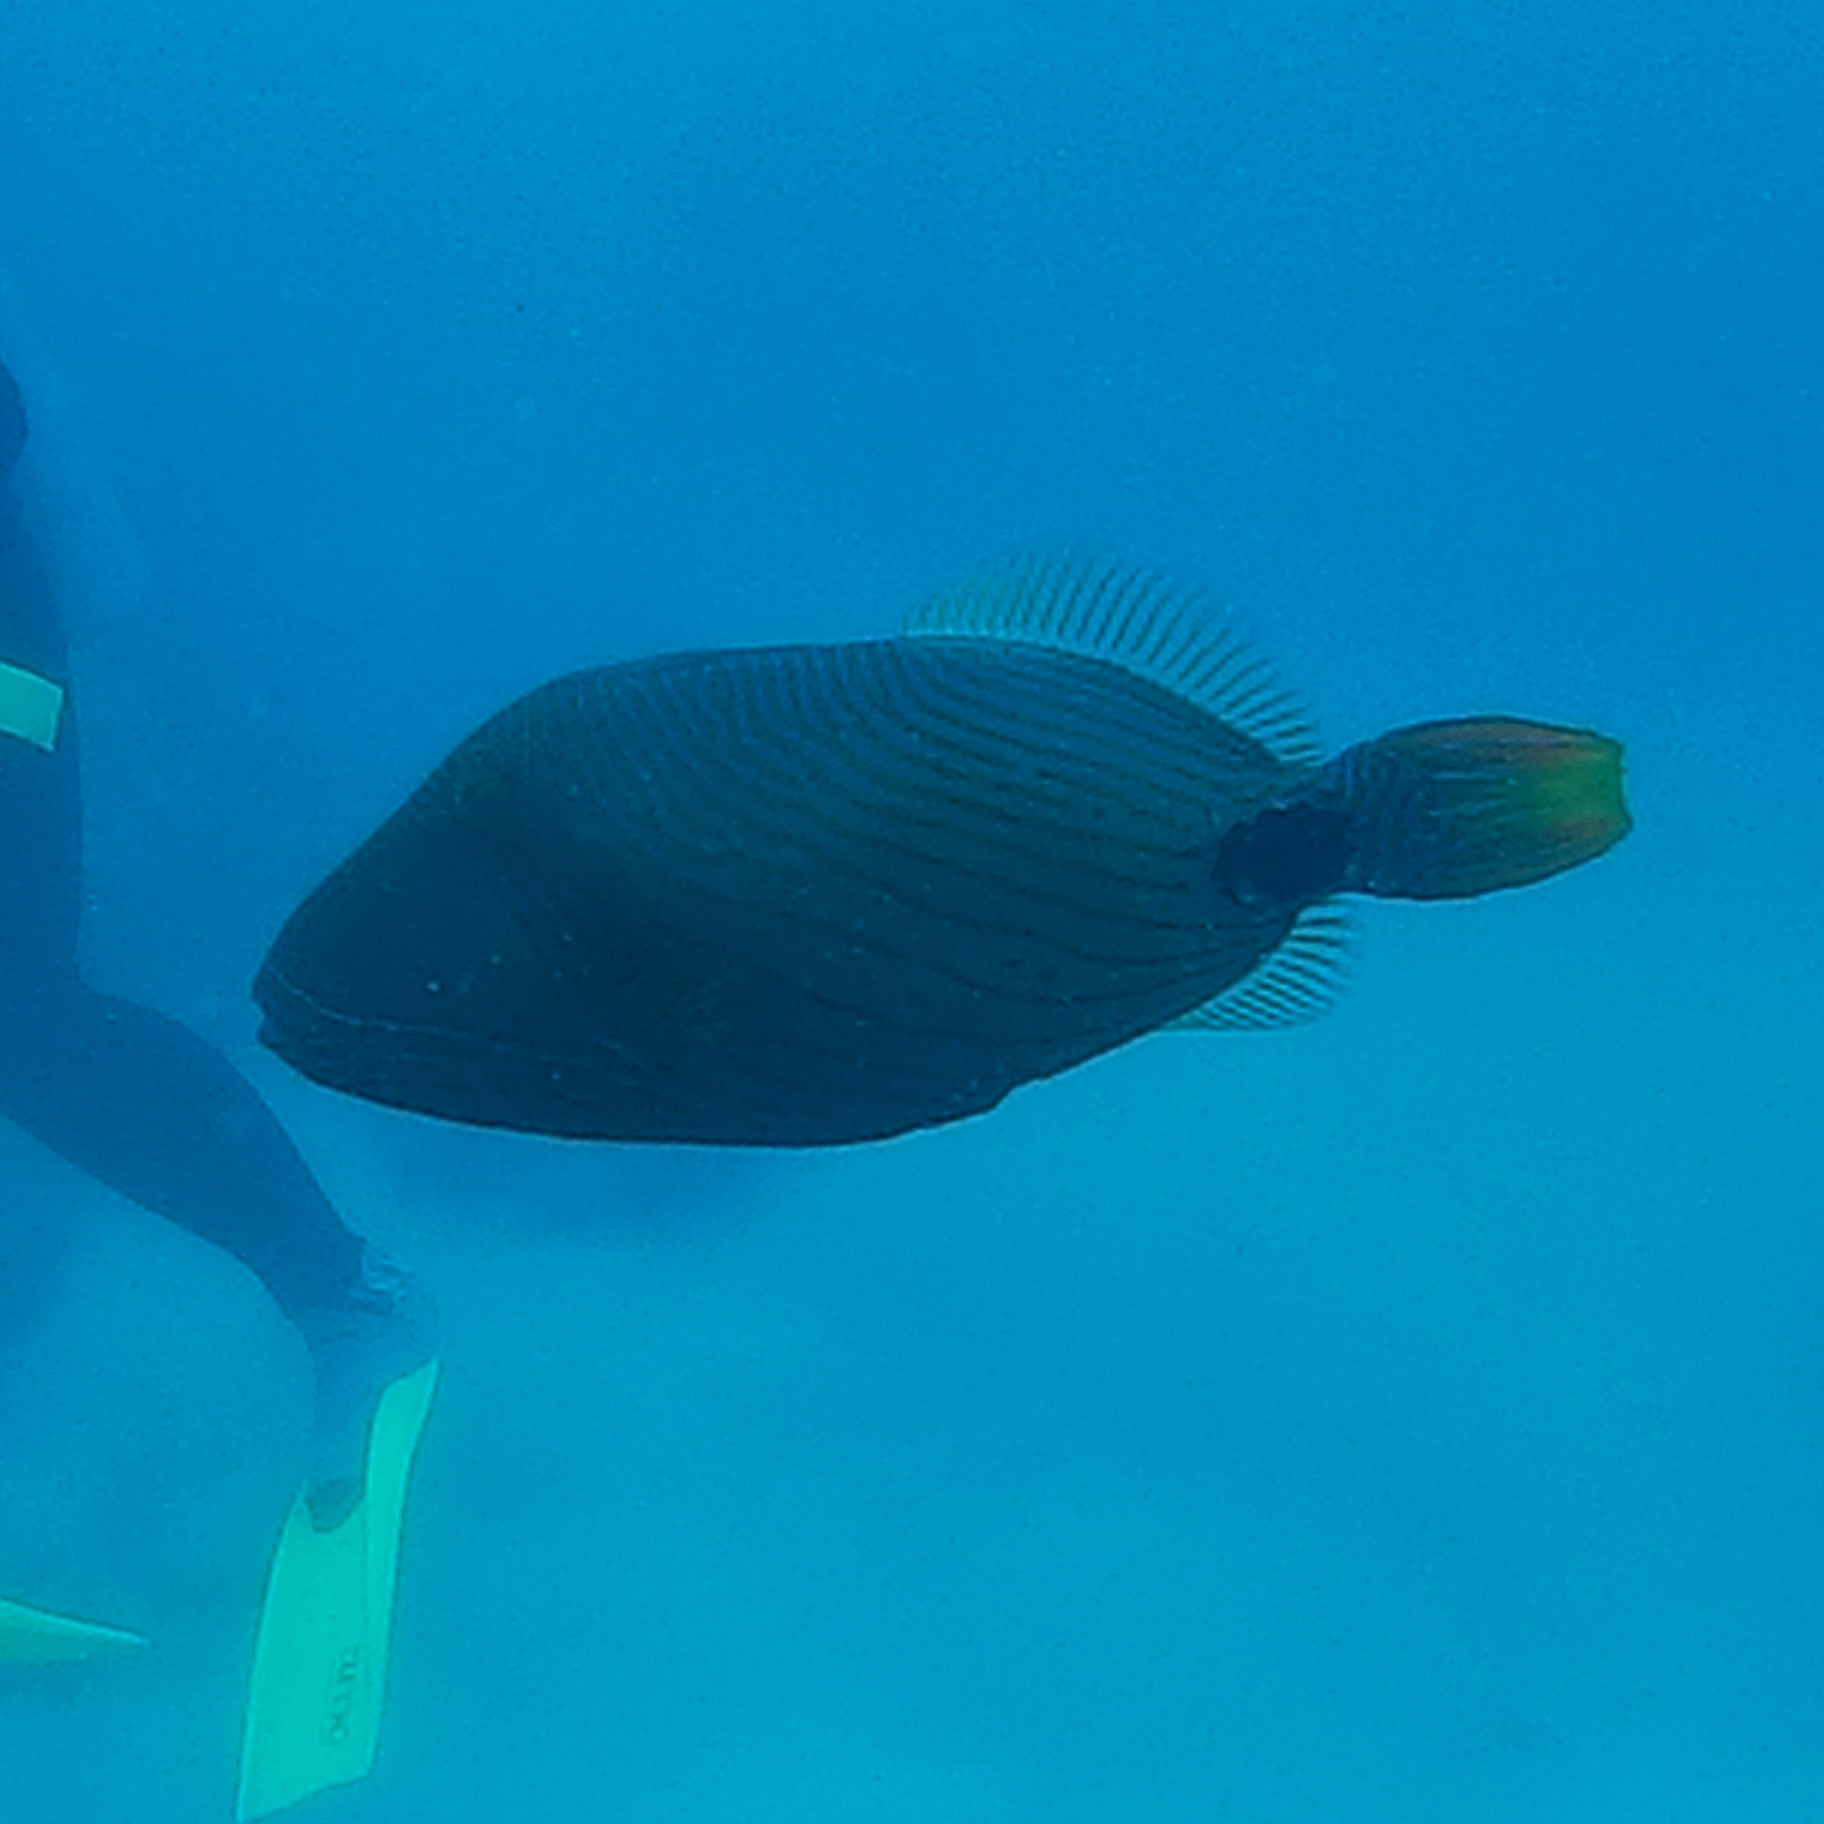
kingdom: Animalia
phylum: Chordata
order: Tetraodontiformes
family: Balistidae
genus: Balistapus
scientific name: Balistapus undulatus
